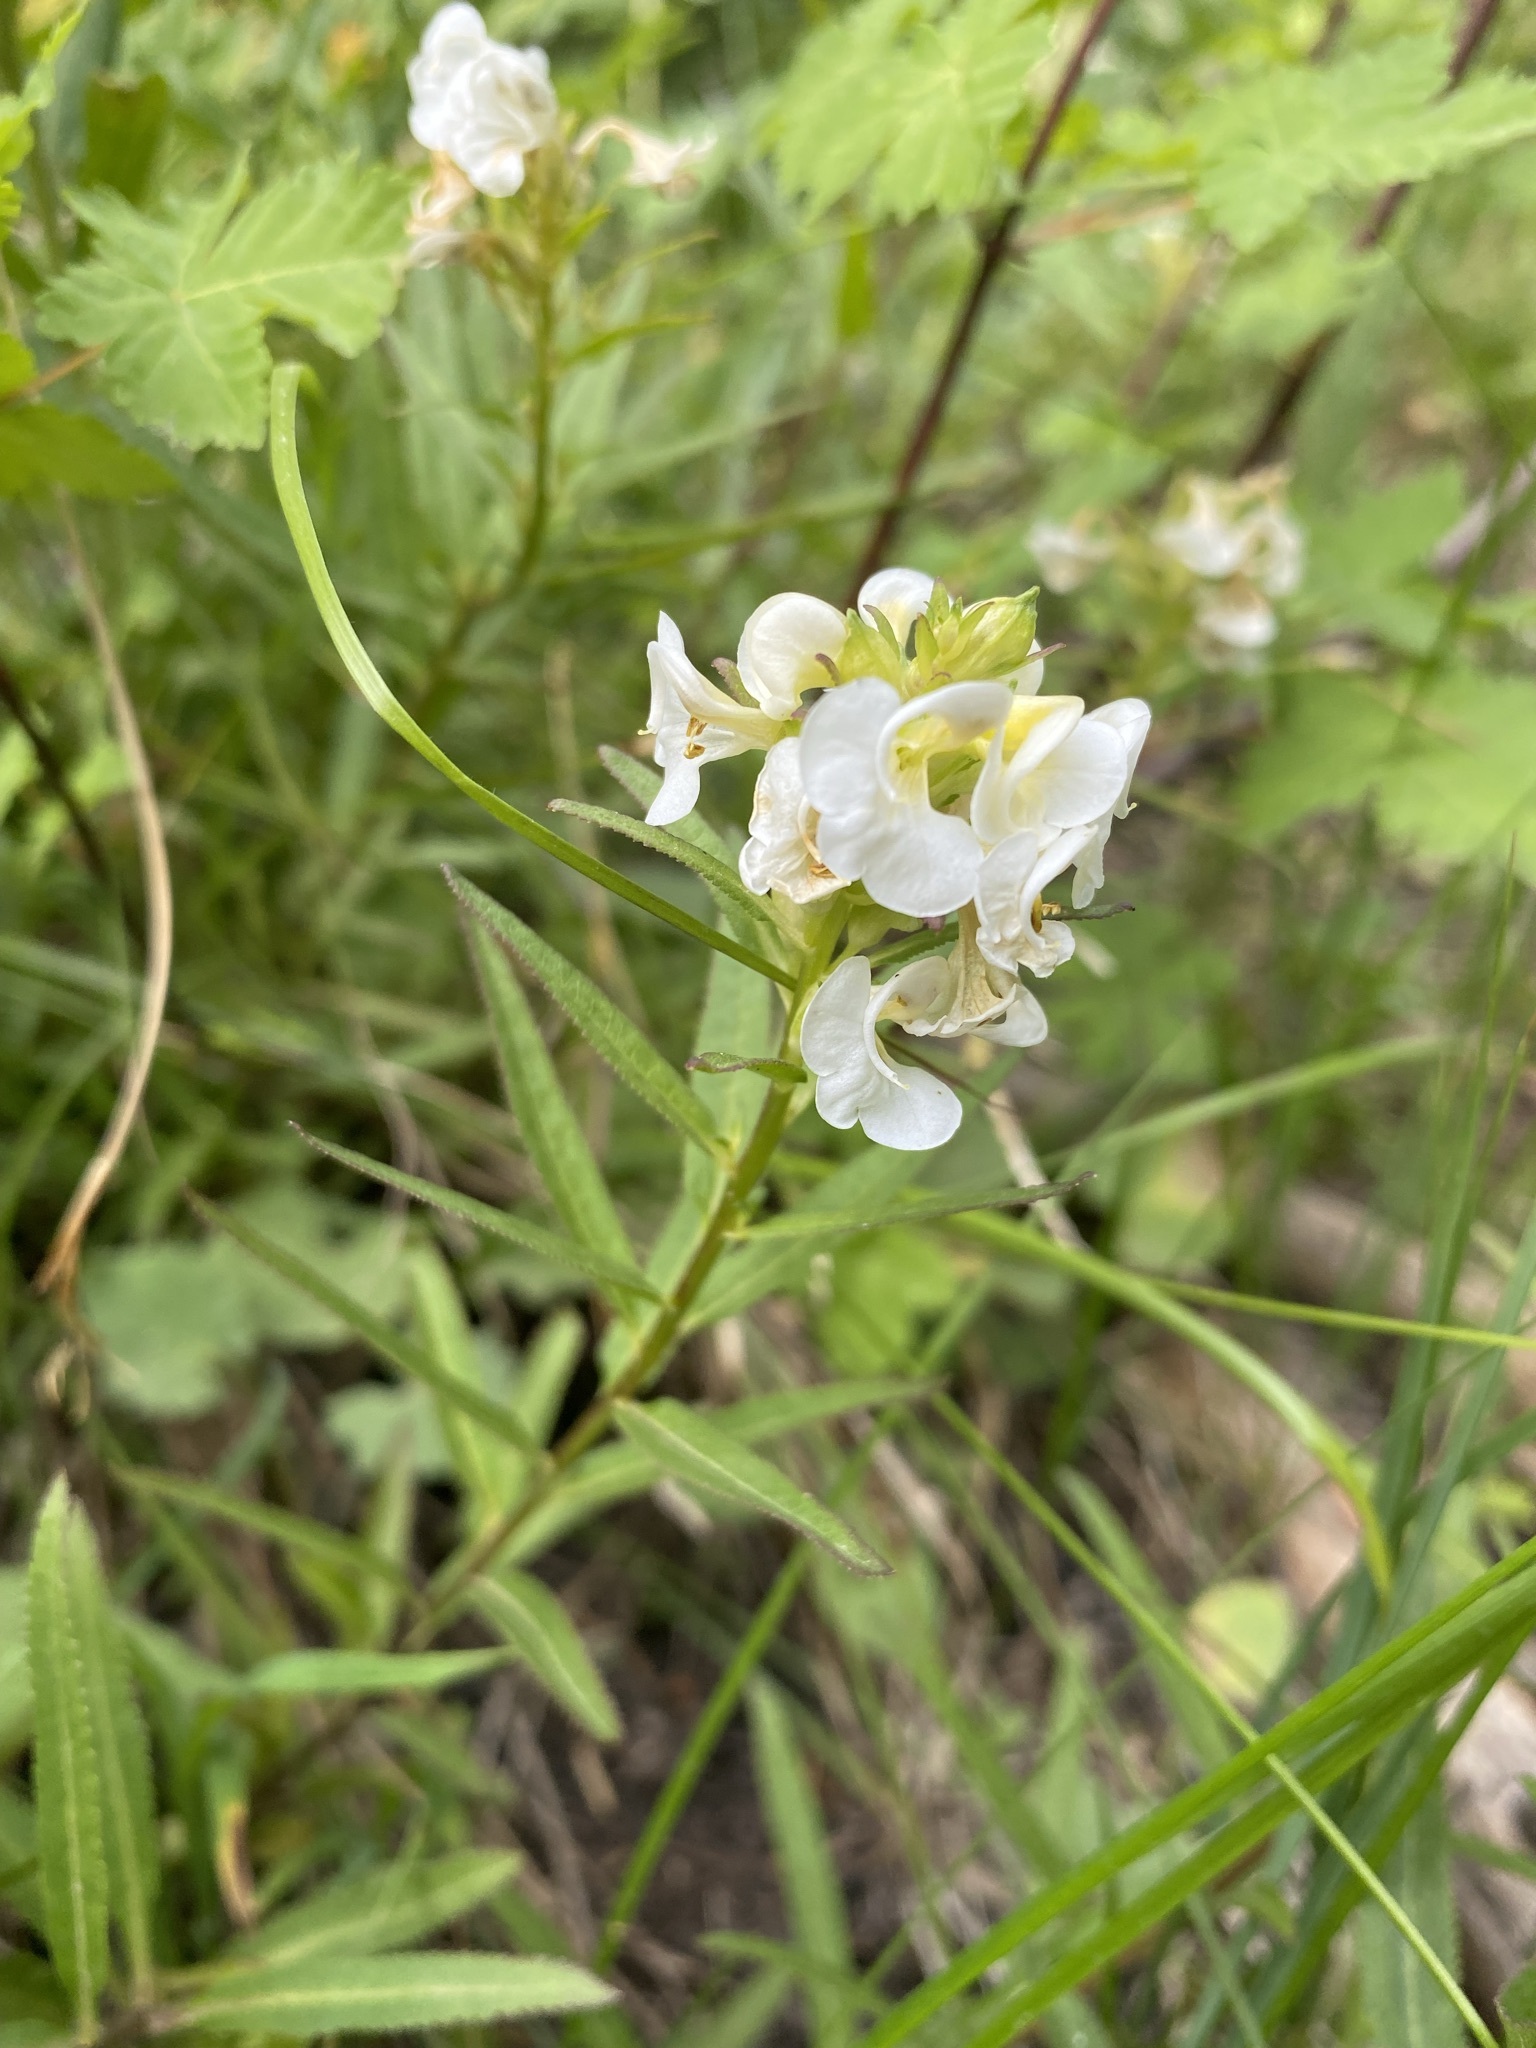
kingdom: Plantae
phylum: Tracheophyta
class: Magnoliopsida
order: Lamiales
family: Orobanchaceae
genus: Pedicularis
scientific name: Pedicularis racemosa
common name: Leafy lousewort
